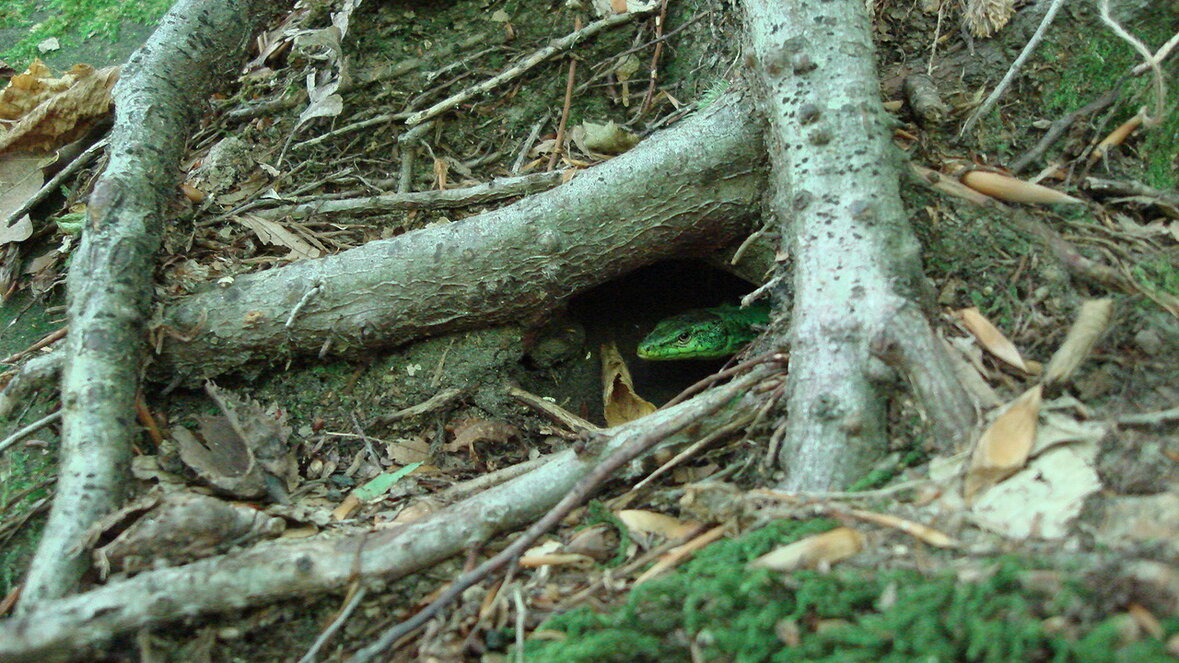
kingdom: Animalia
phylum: Chordata
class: Squamata
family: Lacertidae
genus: Darevskia
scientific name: Darevskia brauneri
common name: Brauner's rock lizard
